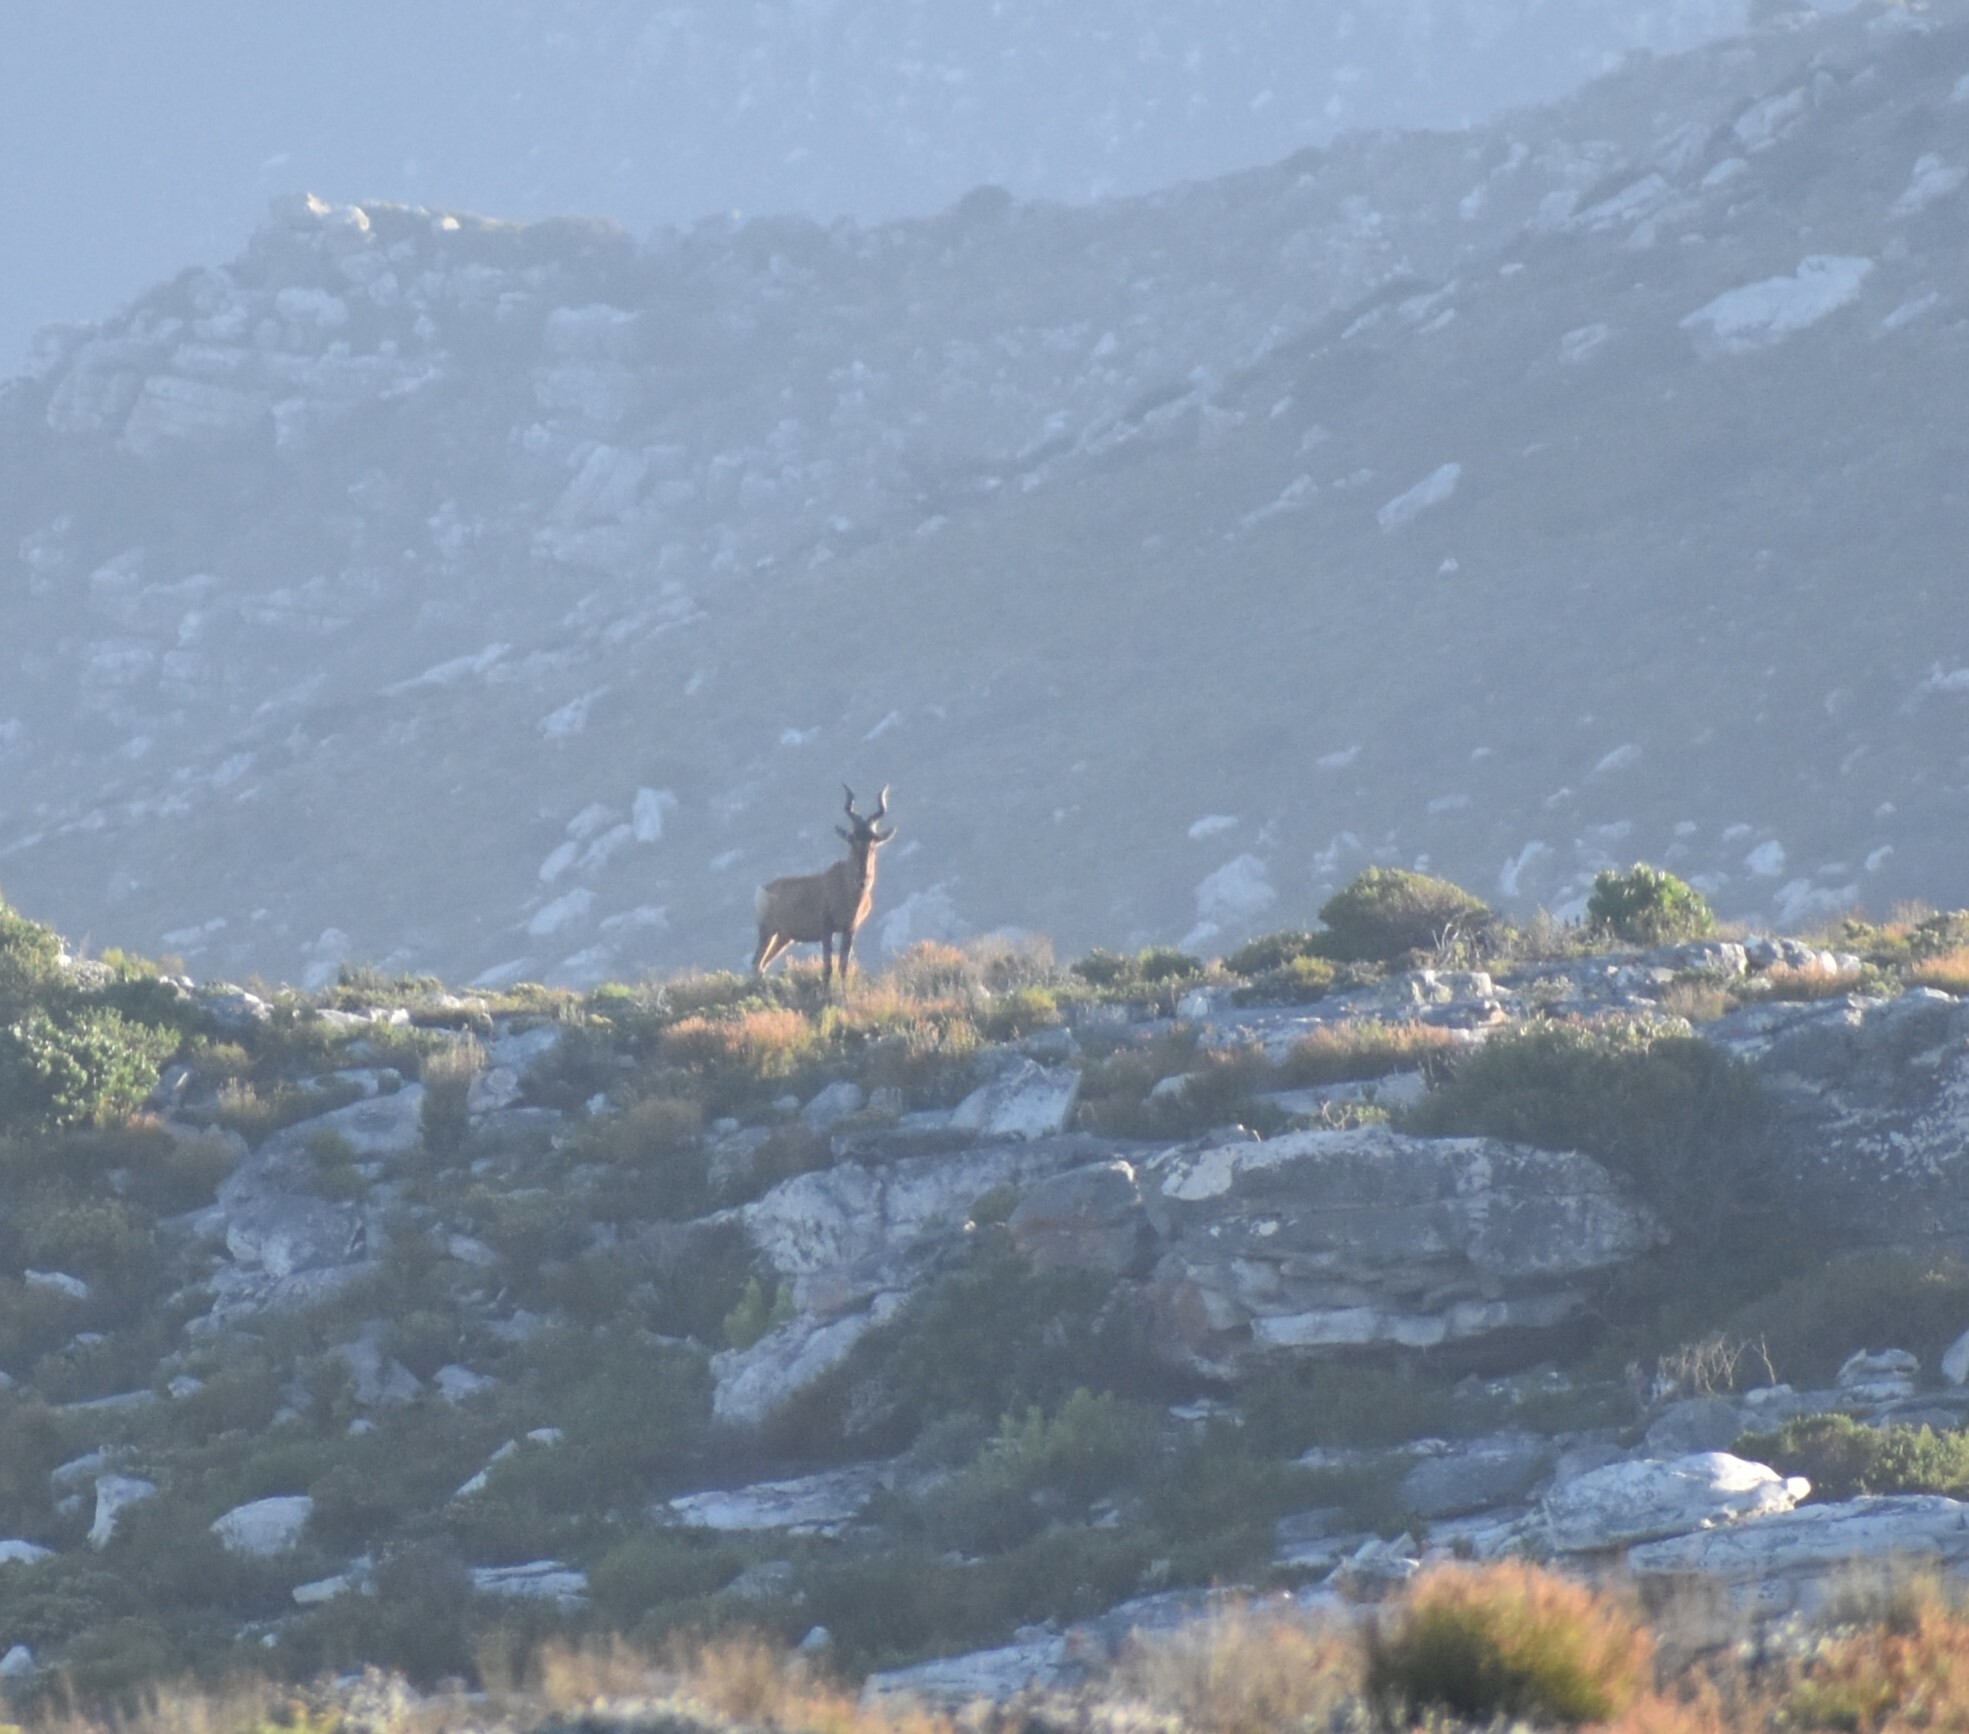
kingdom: Animalia
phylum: Chordata
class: Mammalia
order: Artiodactyla
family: Bovidae
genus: Alcelaphus
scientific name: Alcelaphus caama
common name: Red hartebeest
